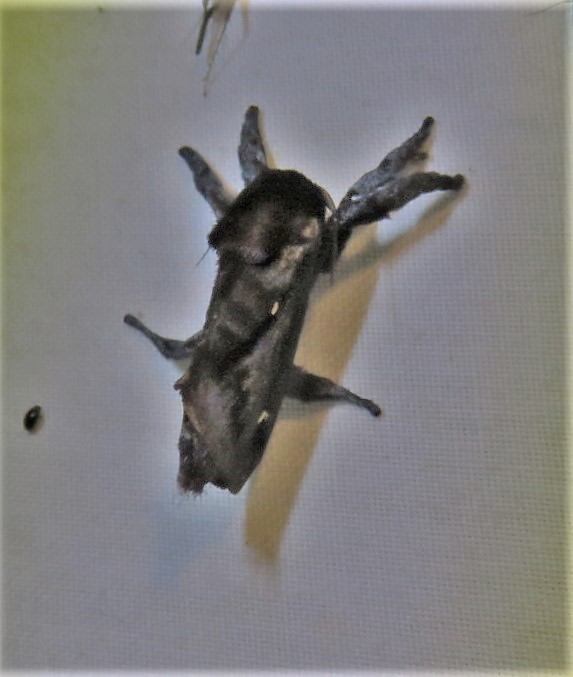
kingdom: Animalia
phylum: Arthropoda
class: Insecta
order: Lepidoptera
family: Limacodidae
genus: Acharia
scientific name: Acharia
